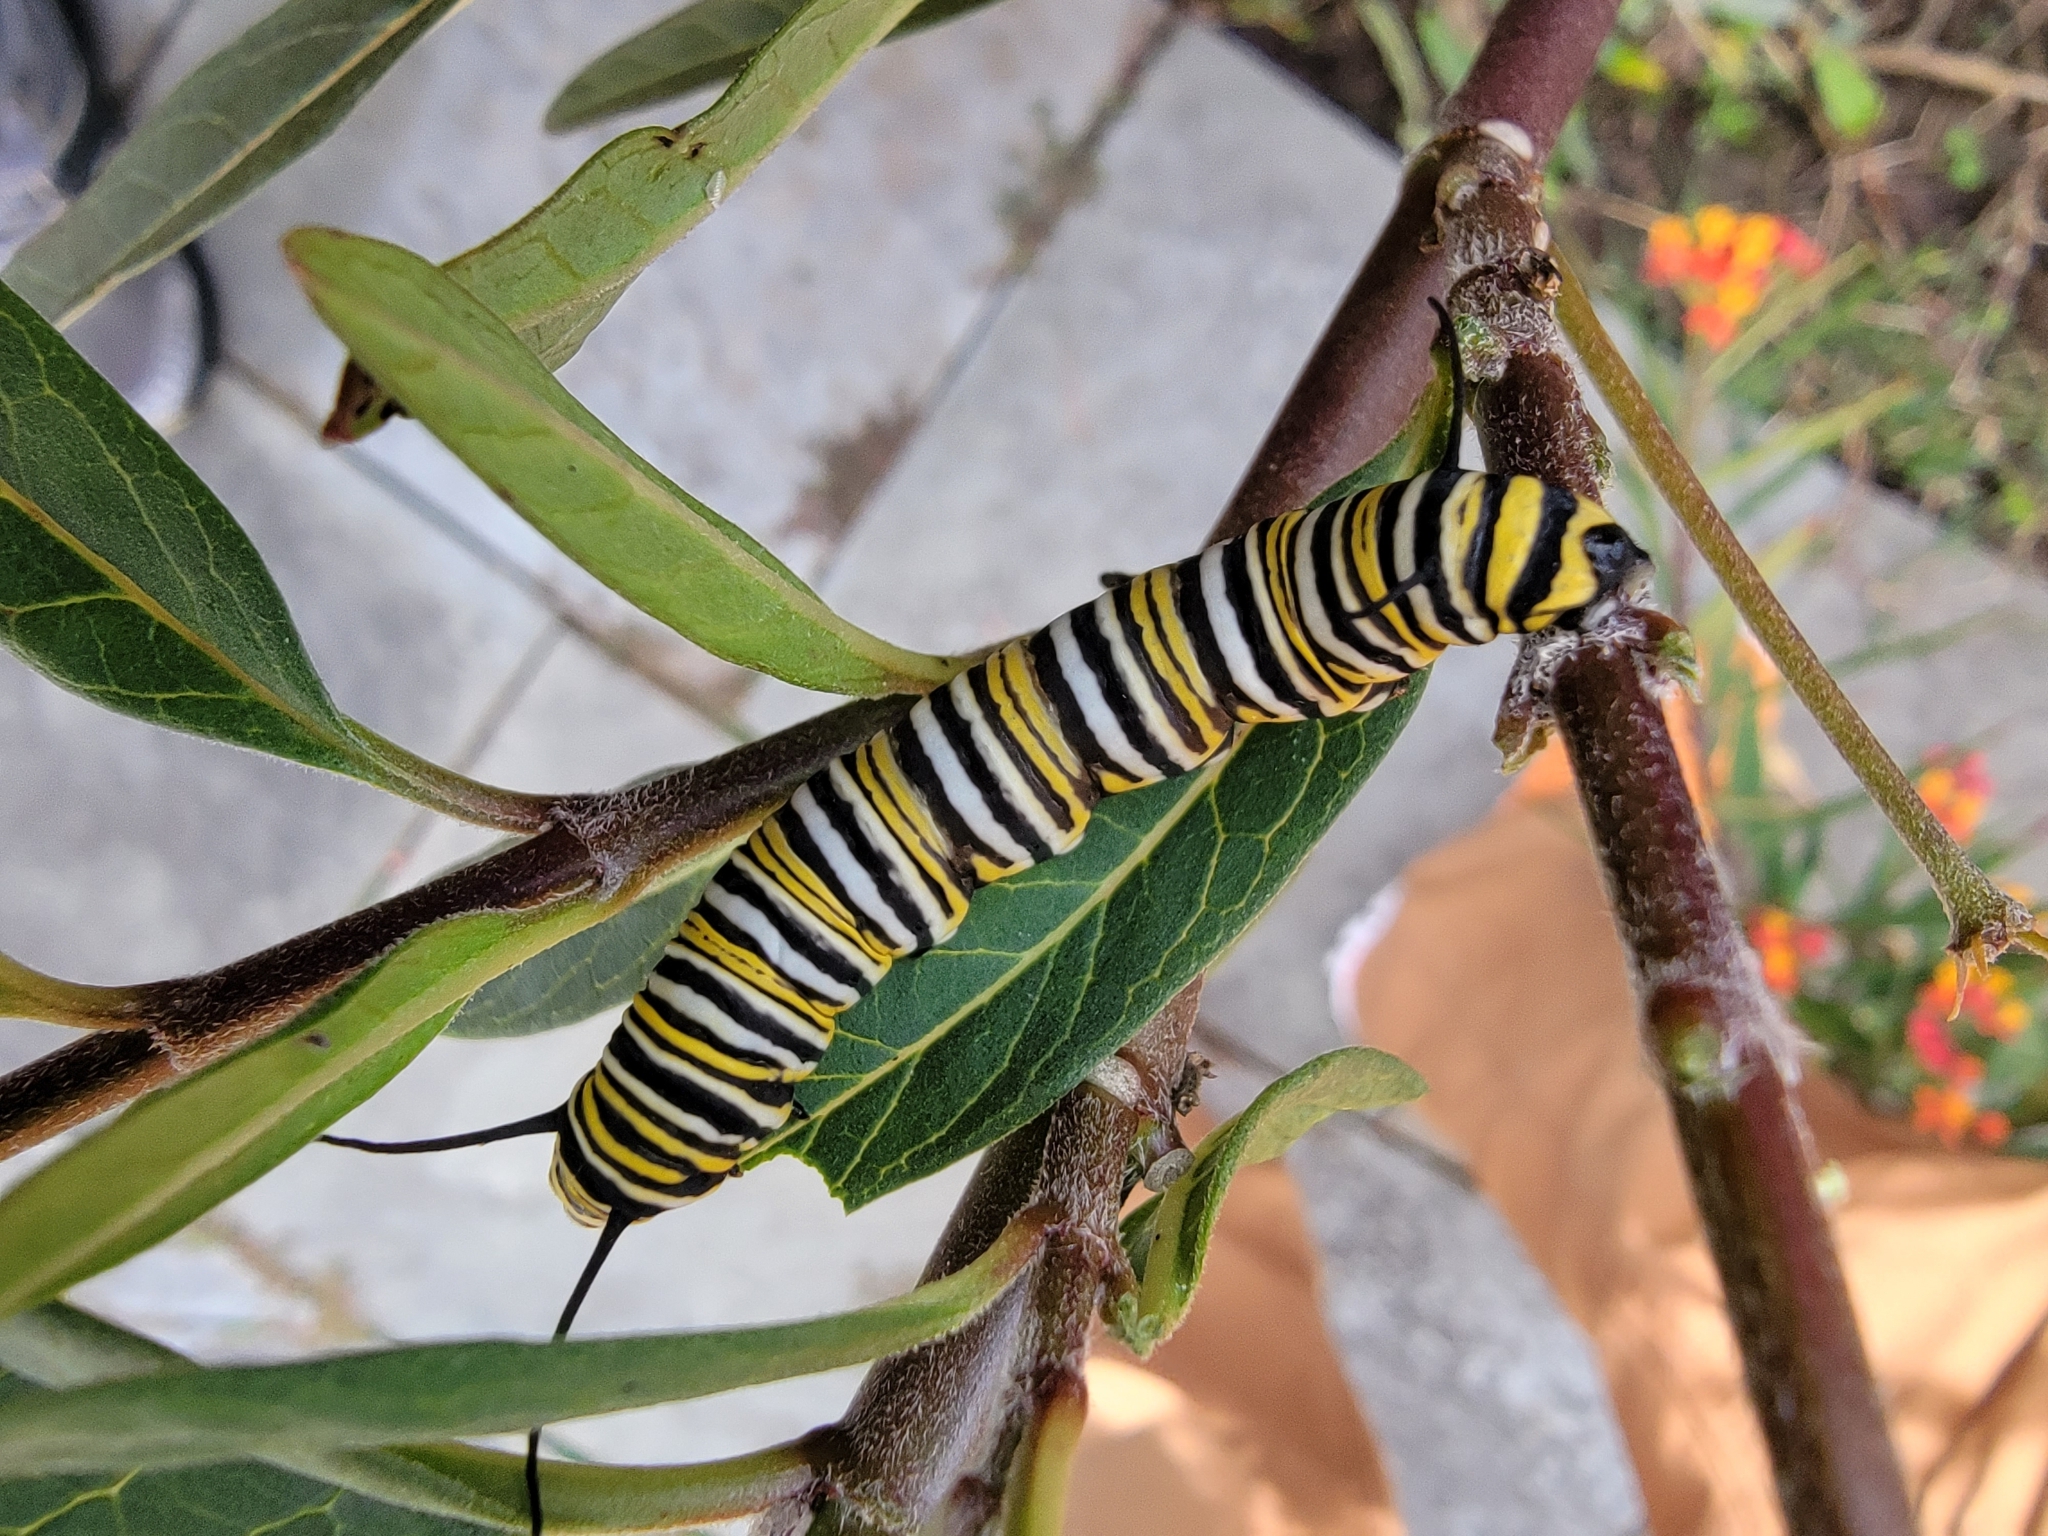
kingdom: Animalia
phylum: Arthropoda
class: Insecta
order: Lepidoptera
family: Nymphalidae
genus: Danaus
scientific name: Danaus plexippus
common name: Monarch
